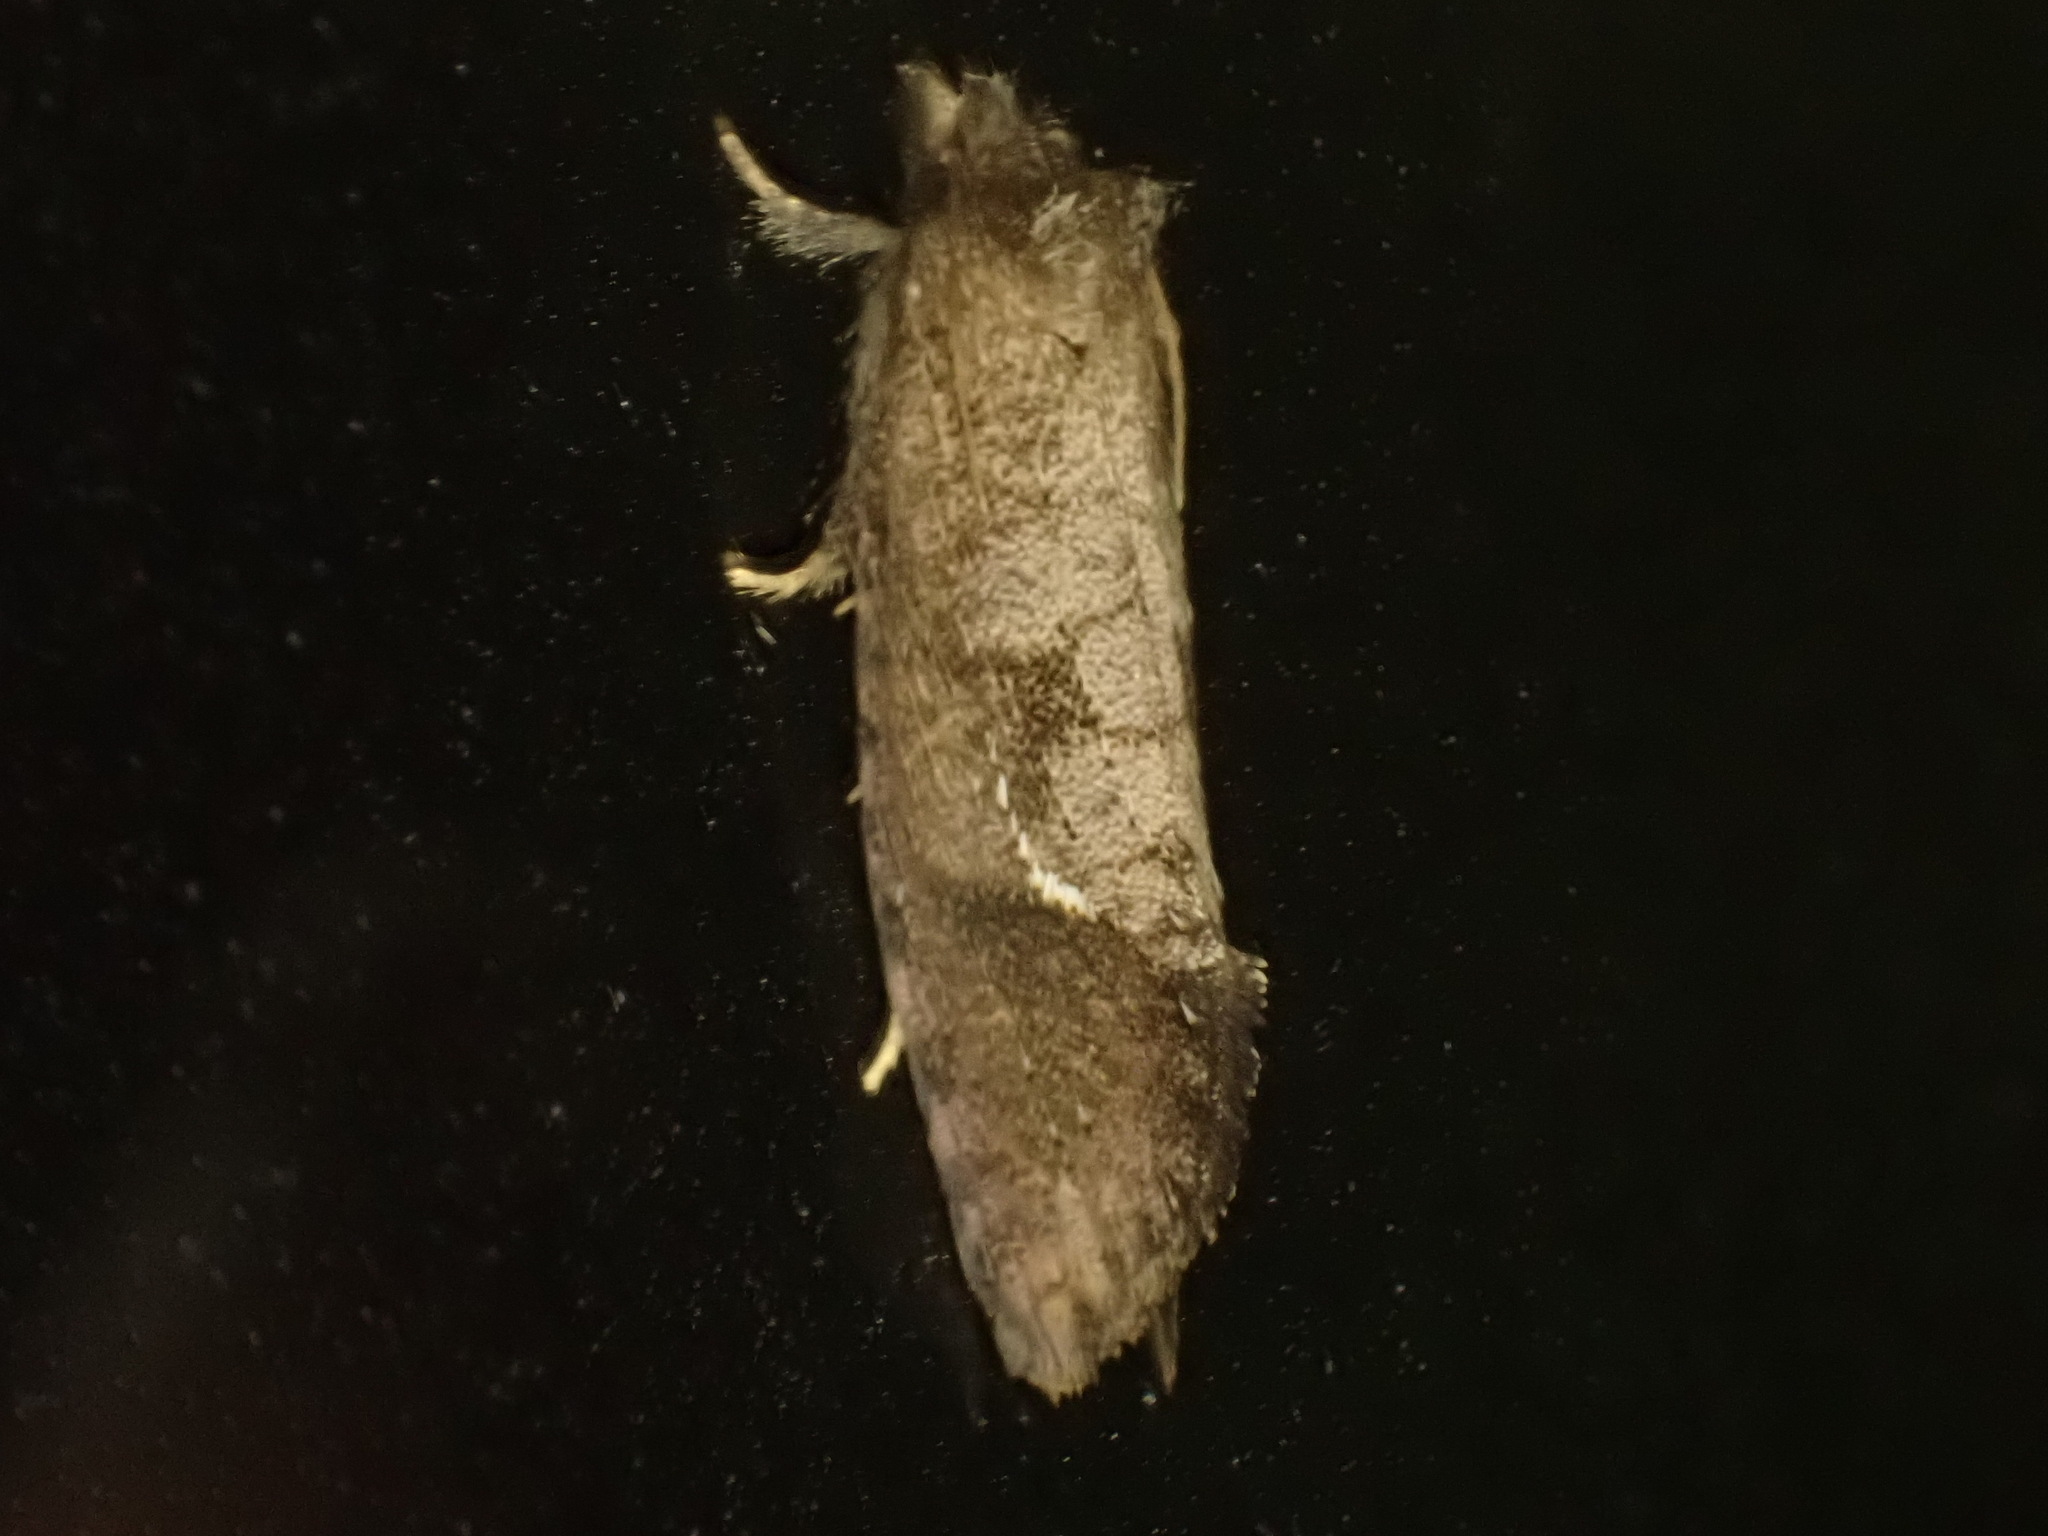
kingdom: Animalia
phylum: Arthropoda
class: Insecta
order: Lepidoptera
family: Tineidae
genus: Acrolophus
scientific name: Acrolophus texanella
